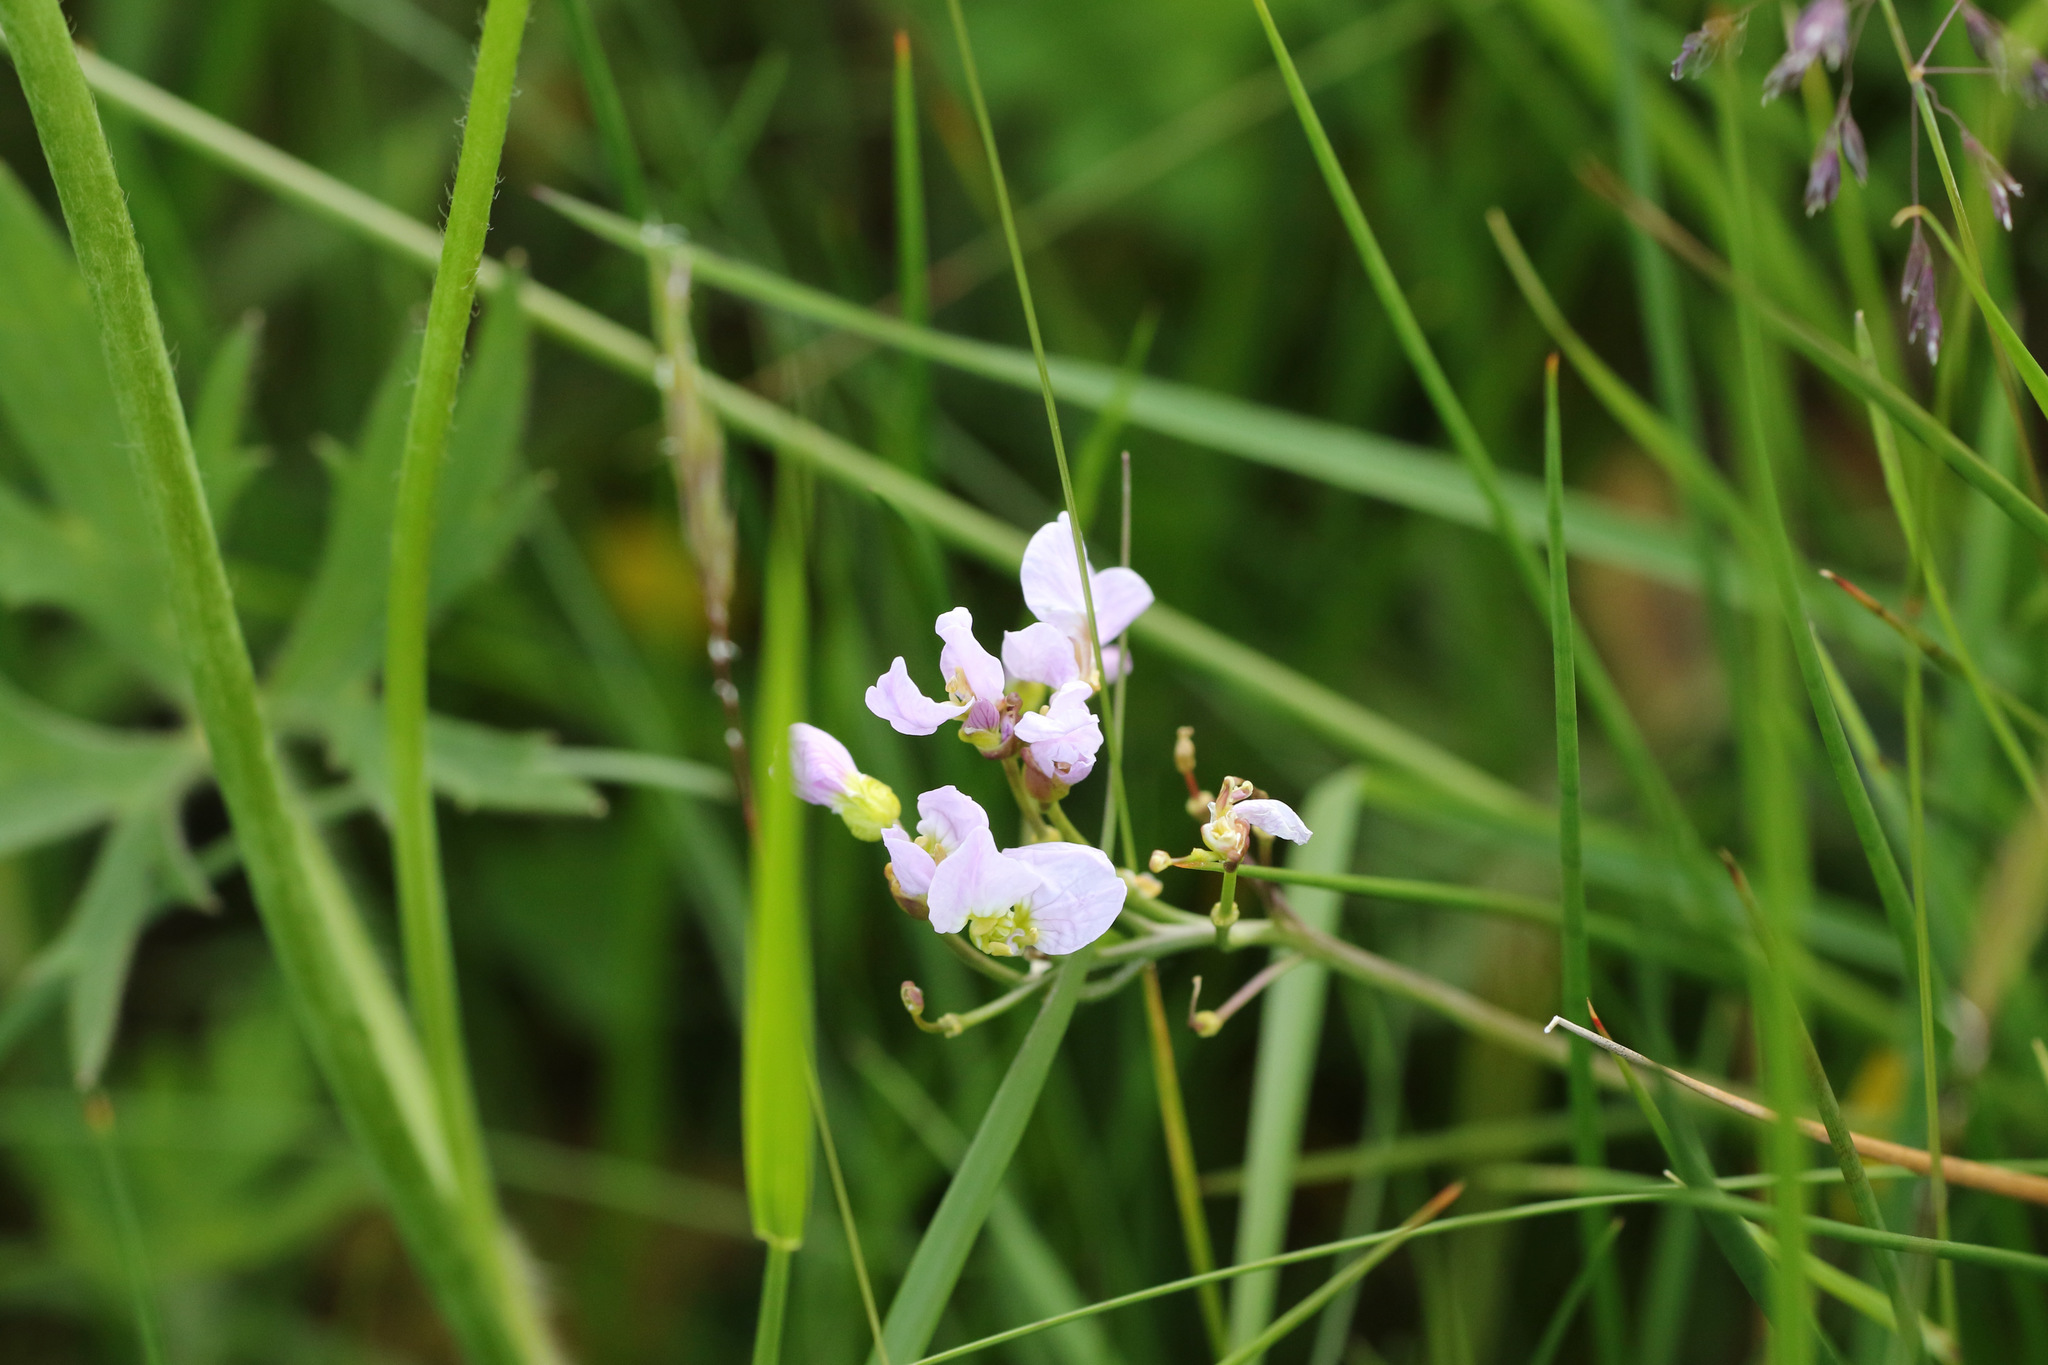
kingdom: Plantae
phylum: Tracheophyta
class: Magnoliopsida
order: Brassicales
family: Brassicaceae
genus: Cardamine
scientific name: Cardamine pratensis
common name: Cuckoo flower
